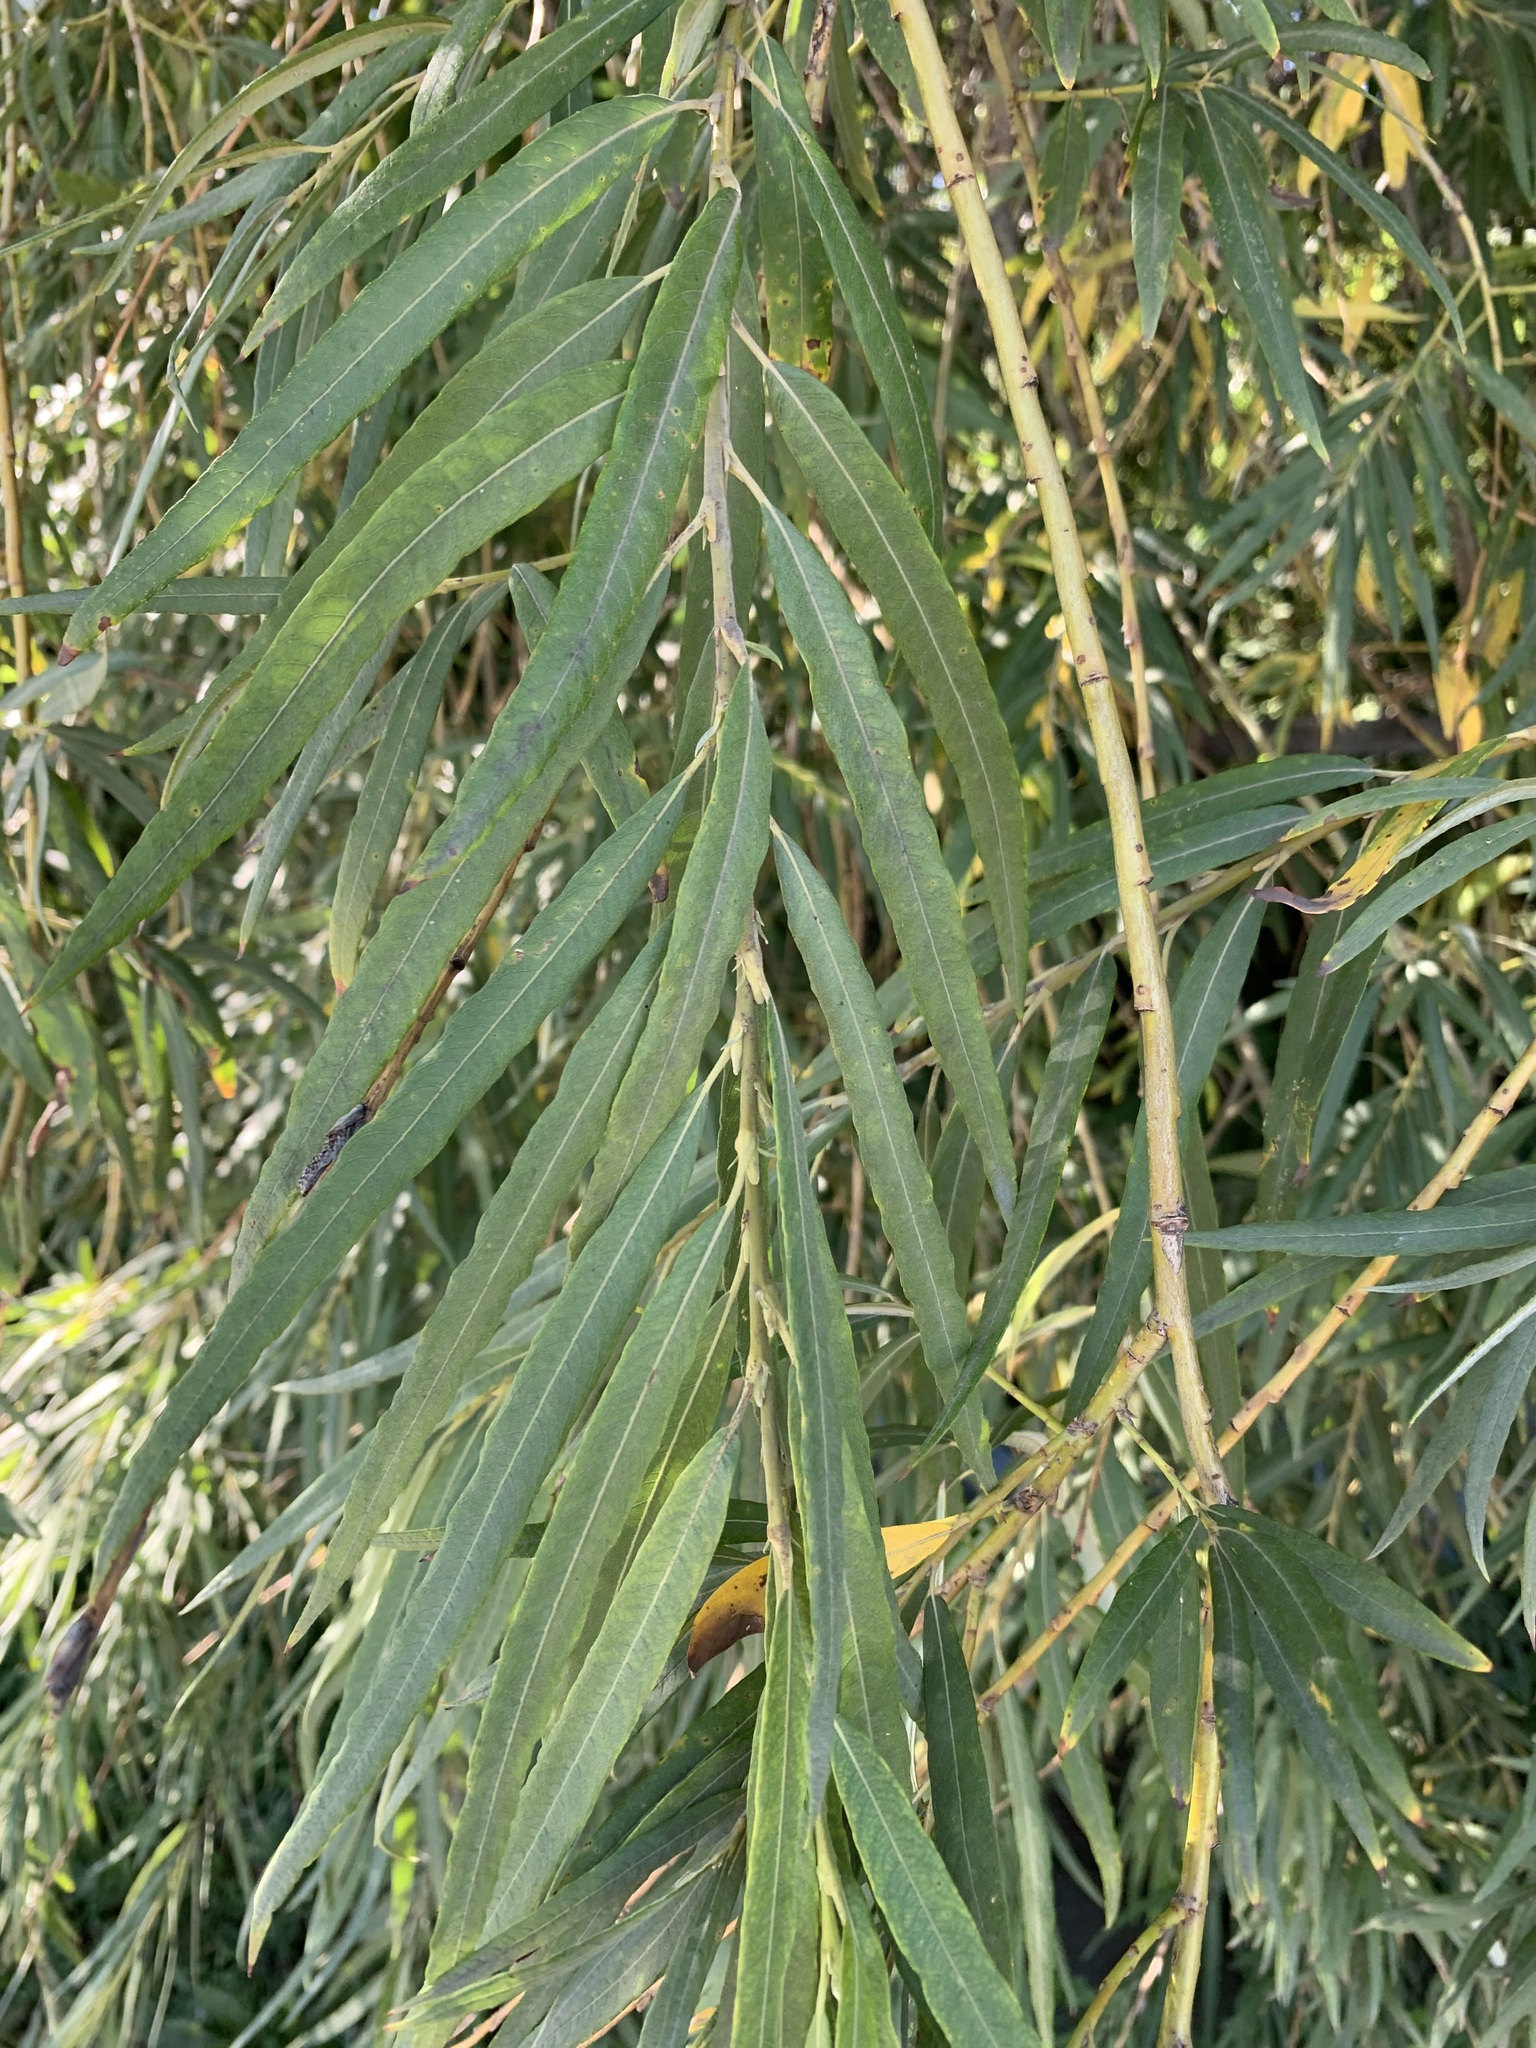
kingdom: Plantae
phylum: Tracheophyta
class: Magnoliopsida
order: Malpighiales
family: Salicaceae
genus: Salix
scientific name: Salix gmelinii
